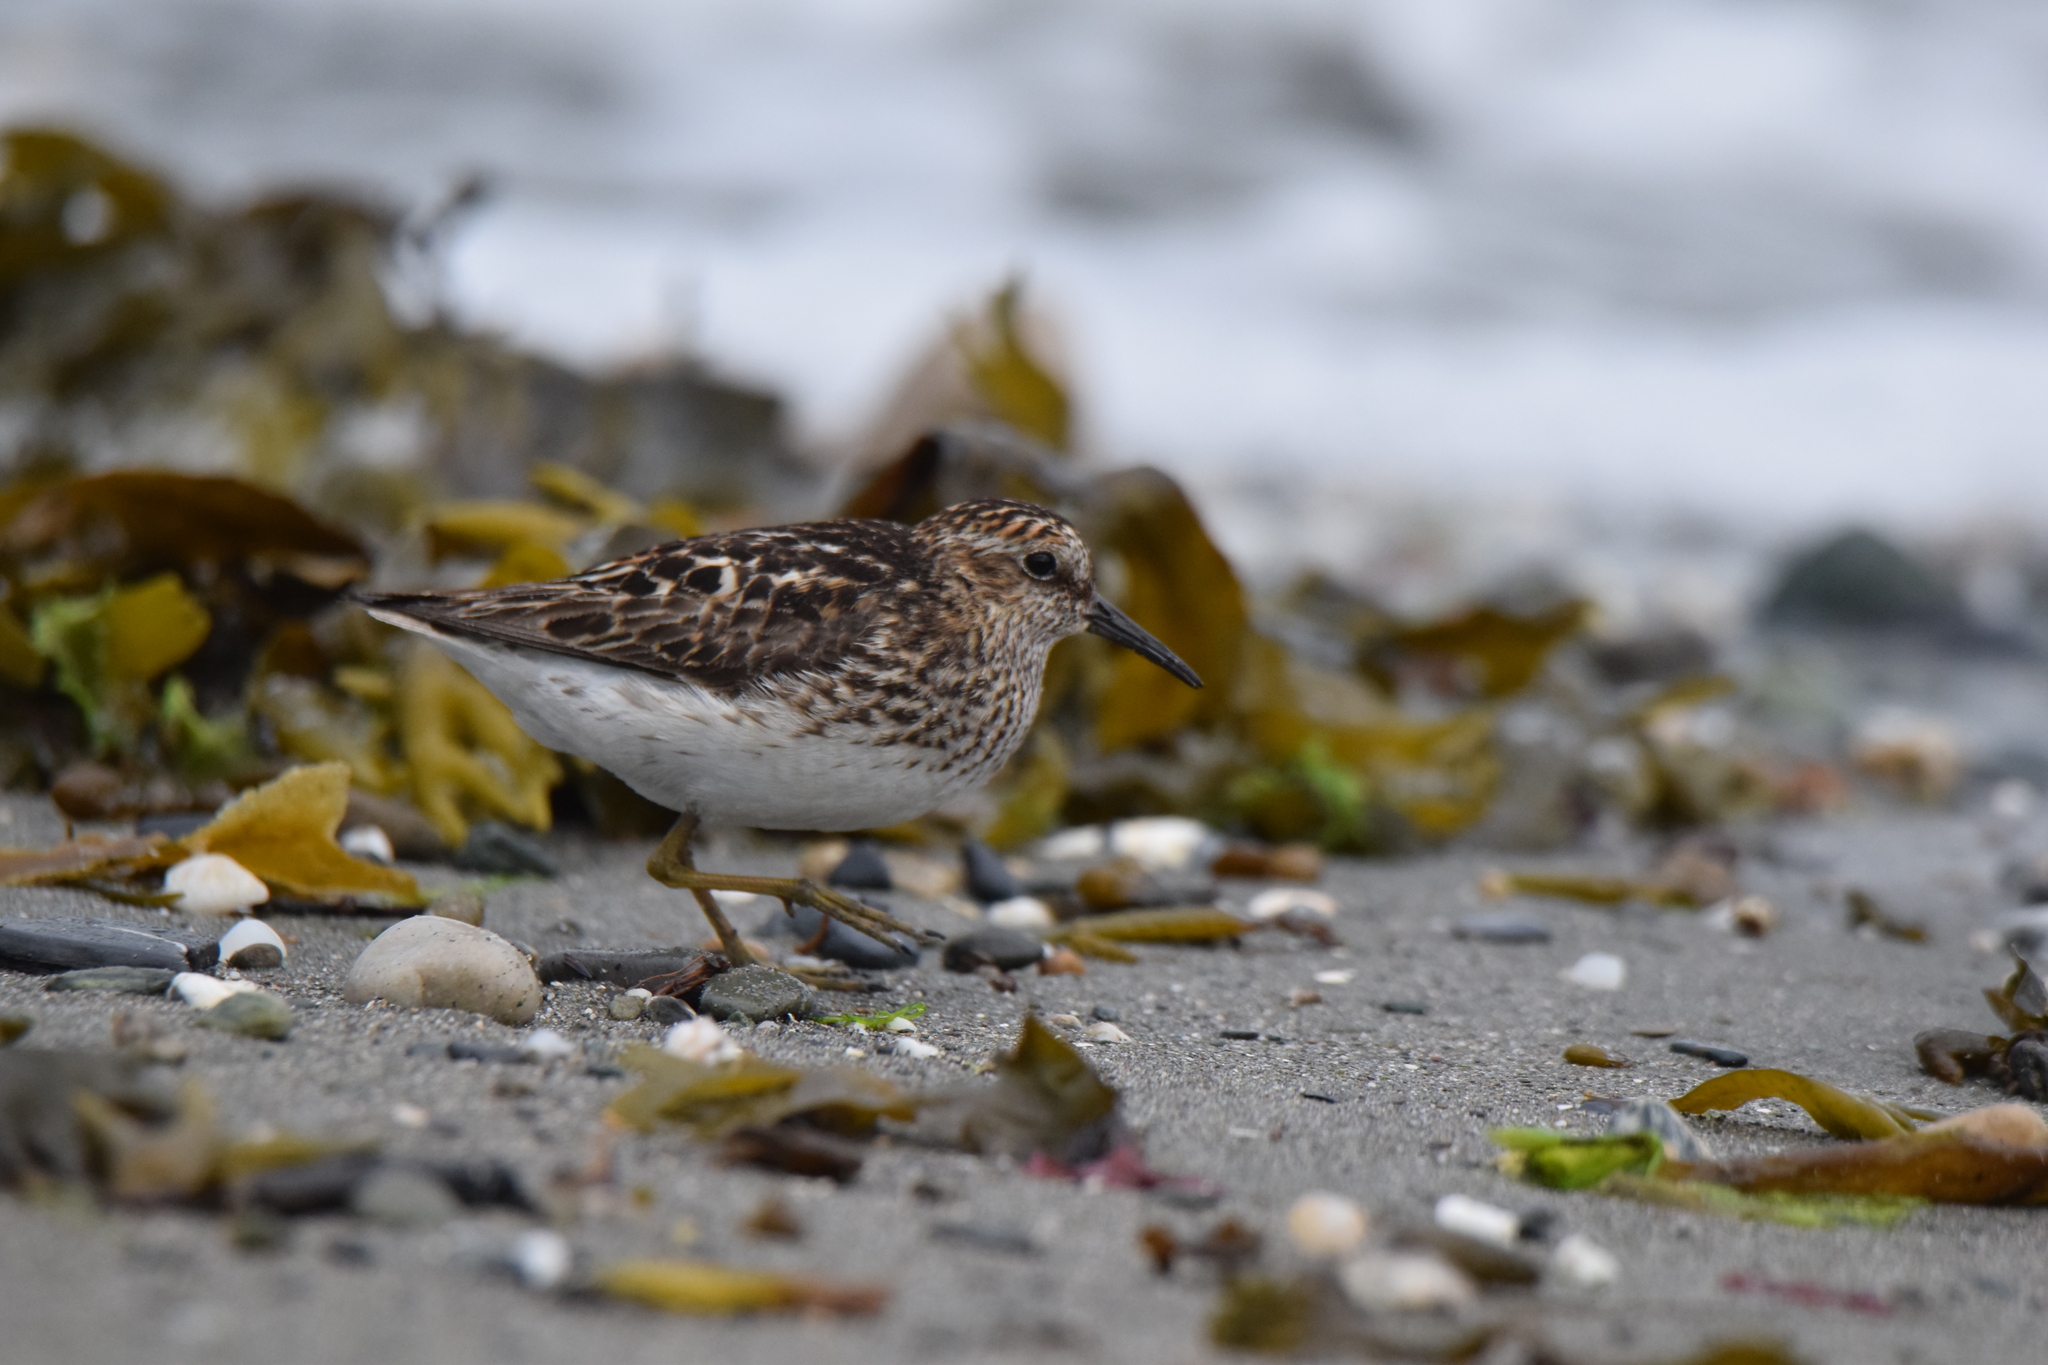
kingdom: Animalia
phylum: Chordata
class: Aves
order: Charadriiformes
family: Scolopacidae
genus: Calidris
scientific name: Calidris minutilla
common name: Least sandpiper
